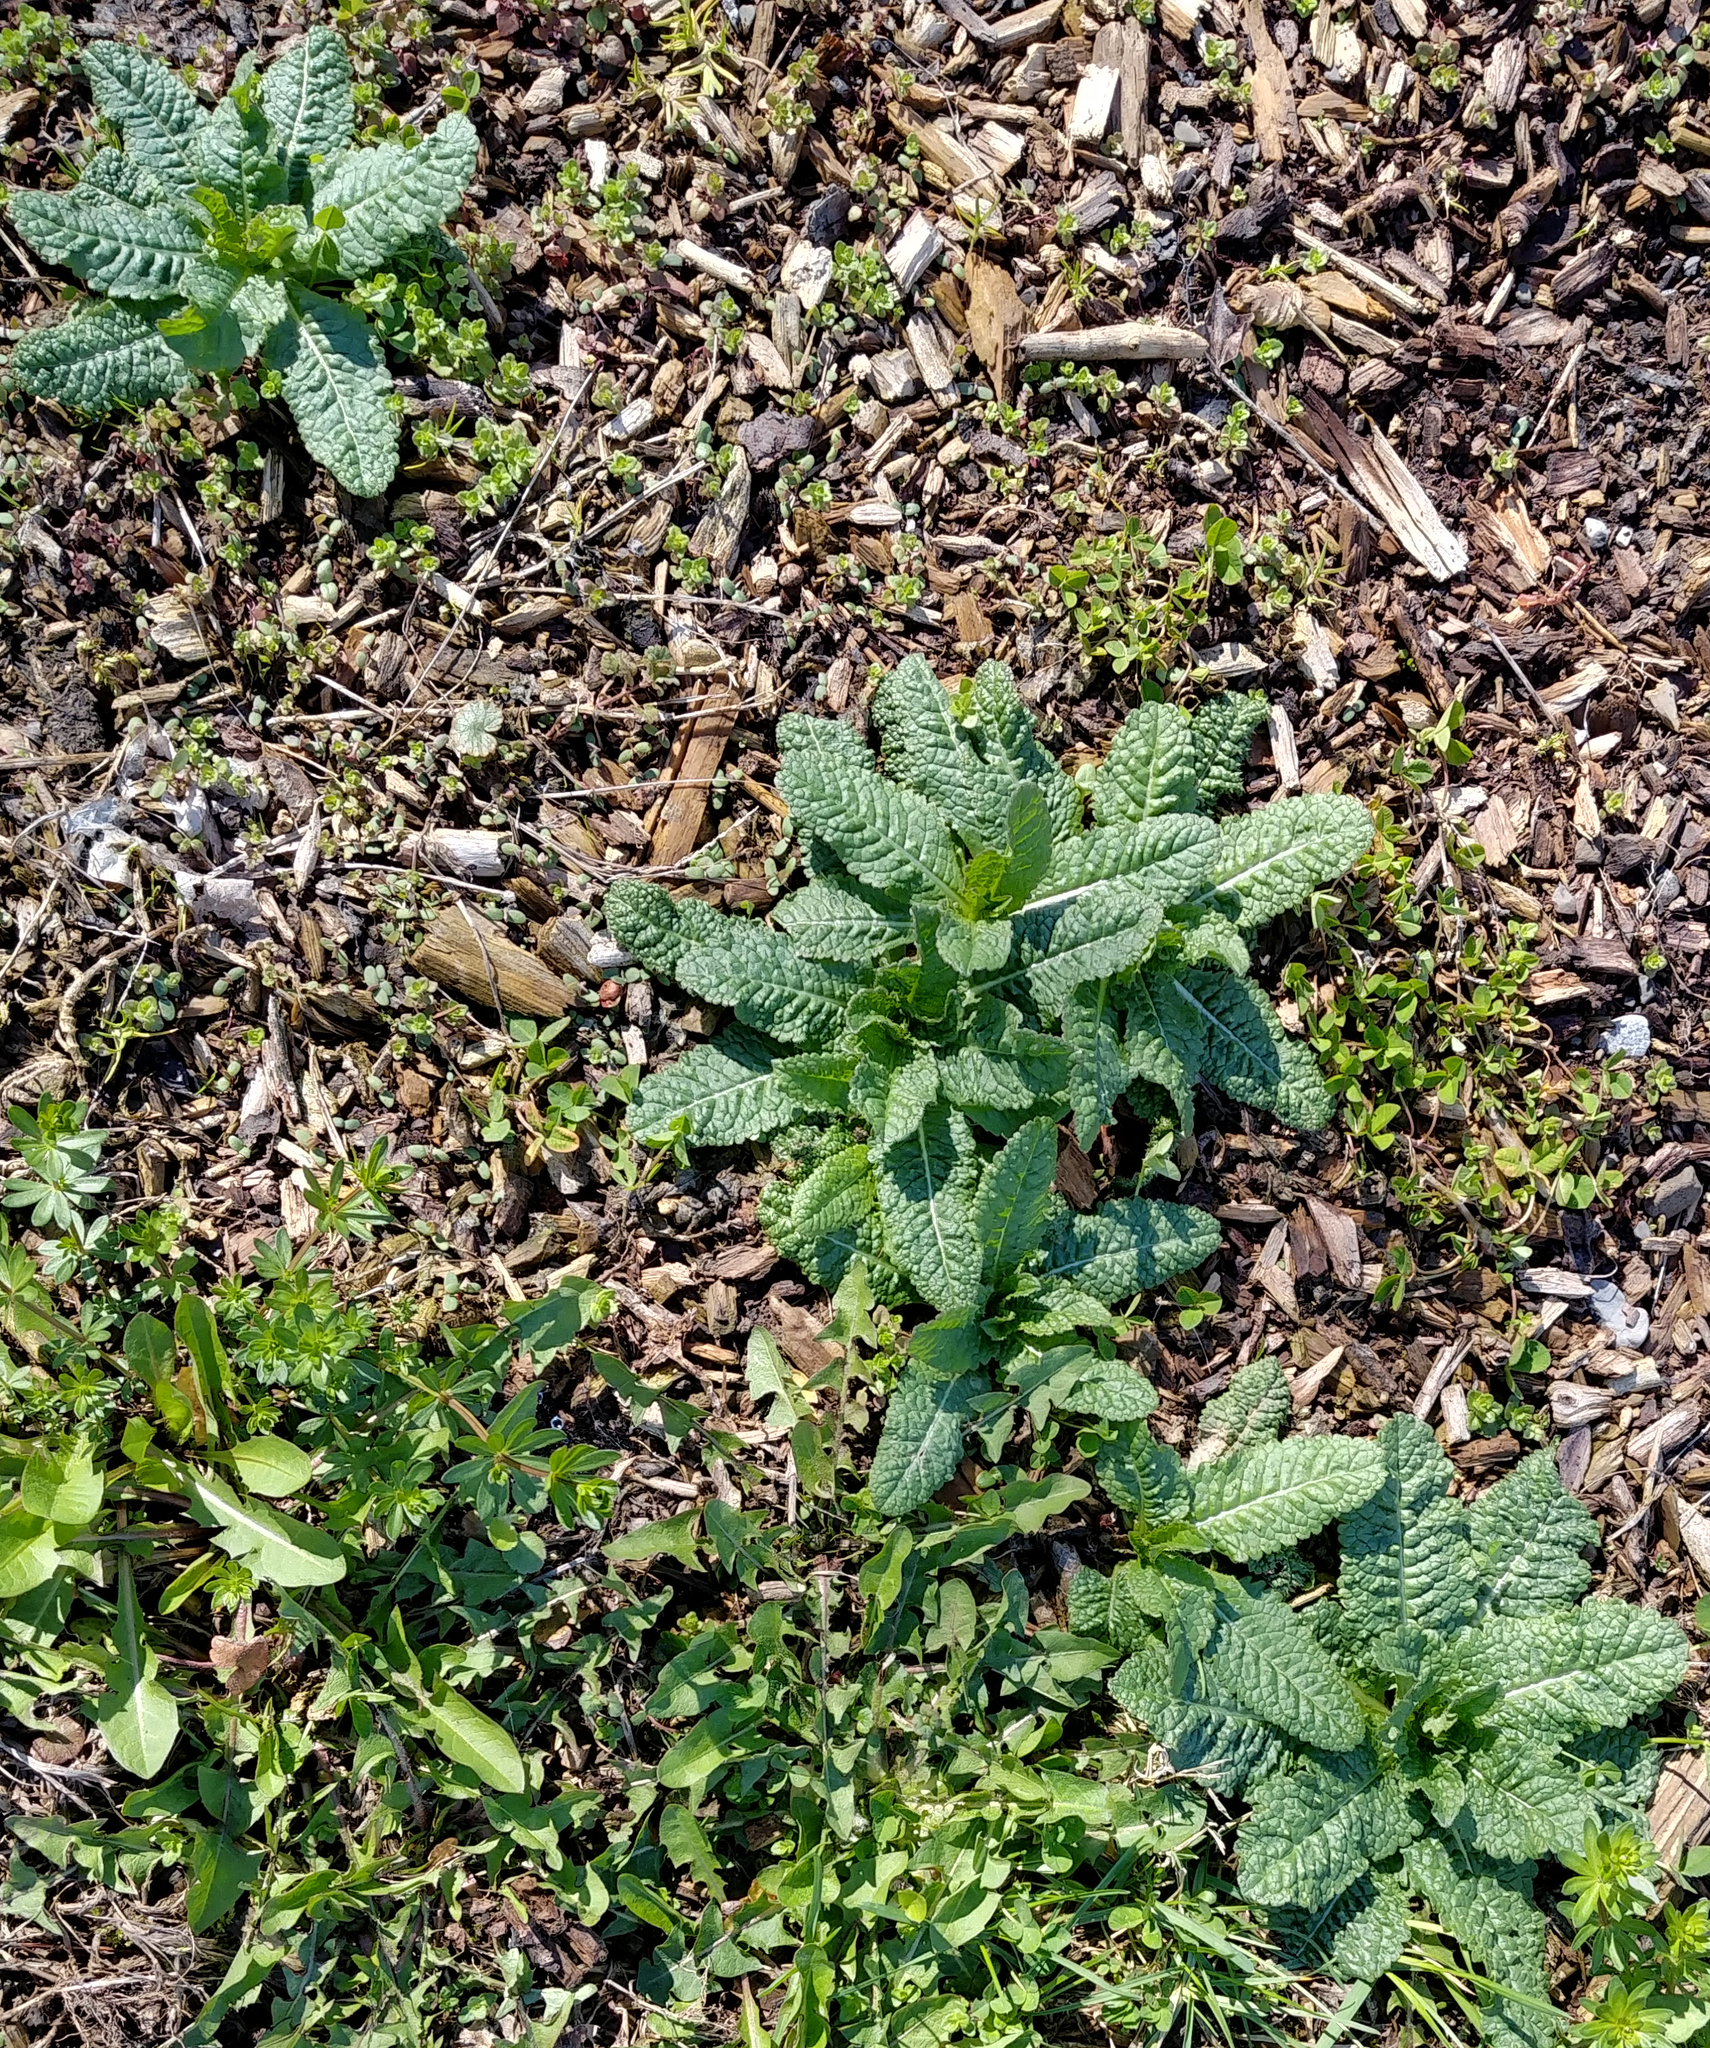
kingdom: Plantae
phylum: Tracheophyta
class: Magnoliopsida
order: Dipsacales
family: Caprifoliaceae
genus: Dipsacus
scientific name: Dipsacus fullonum
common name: Teasel
